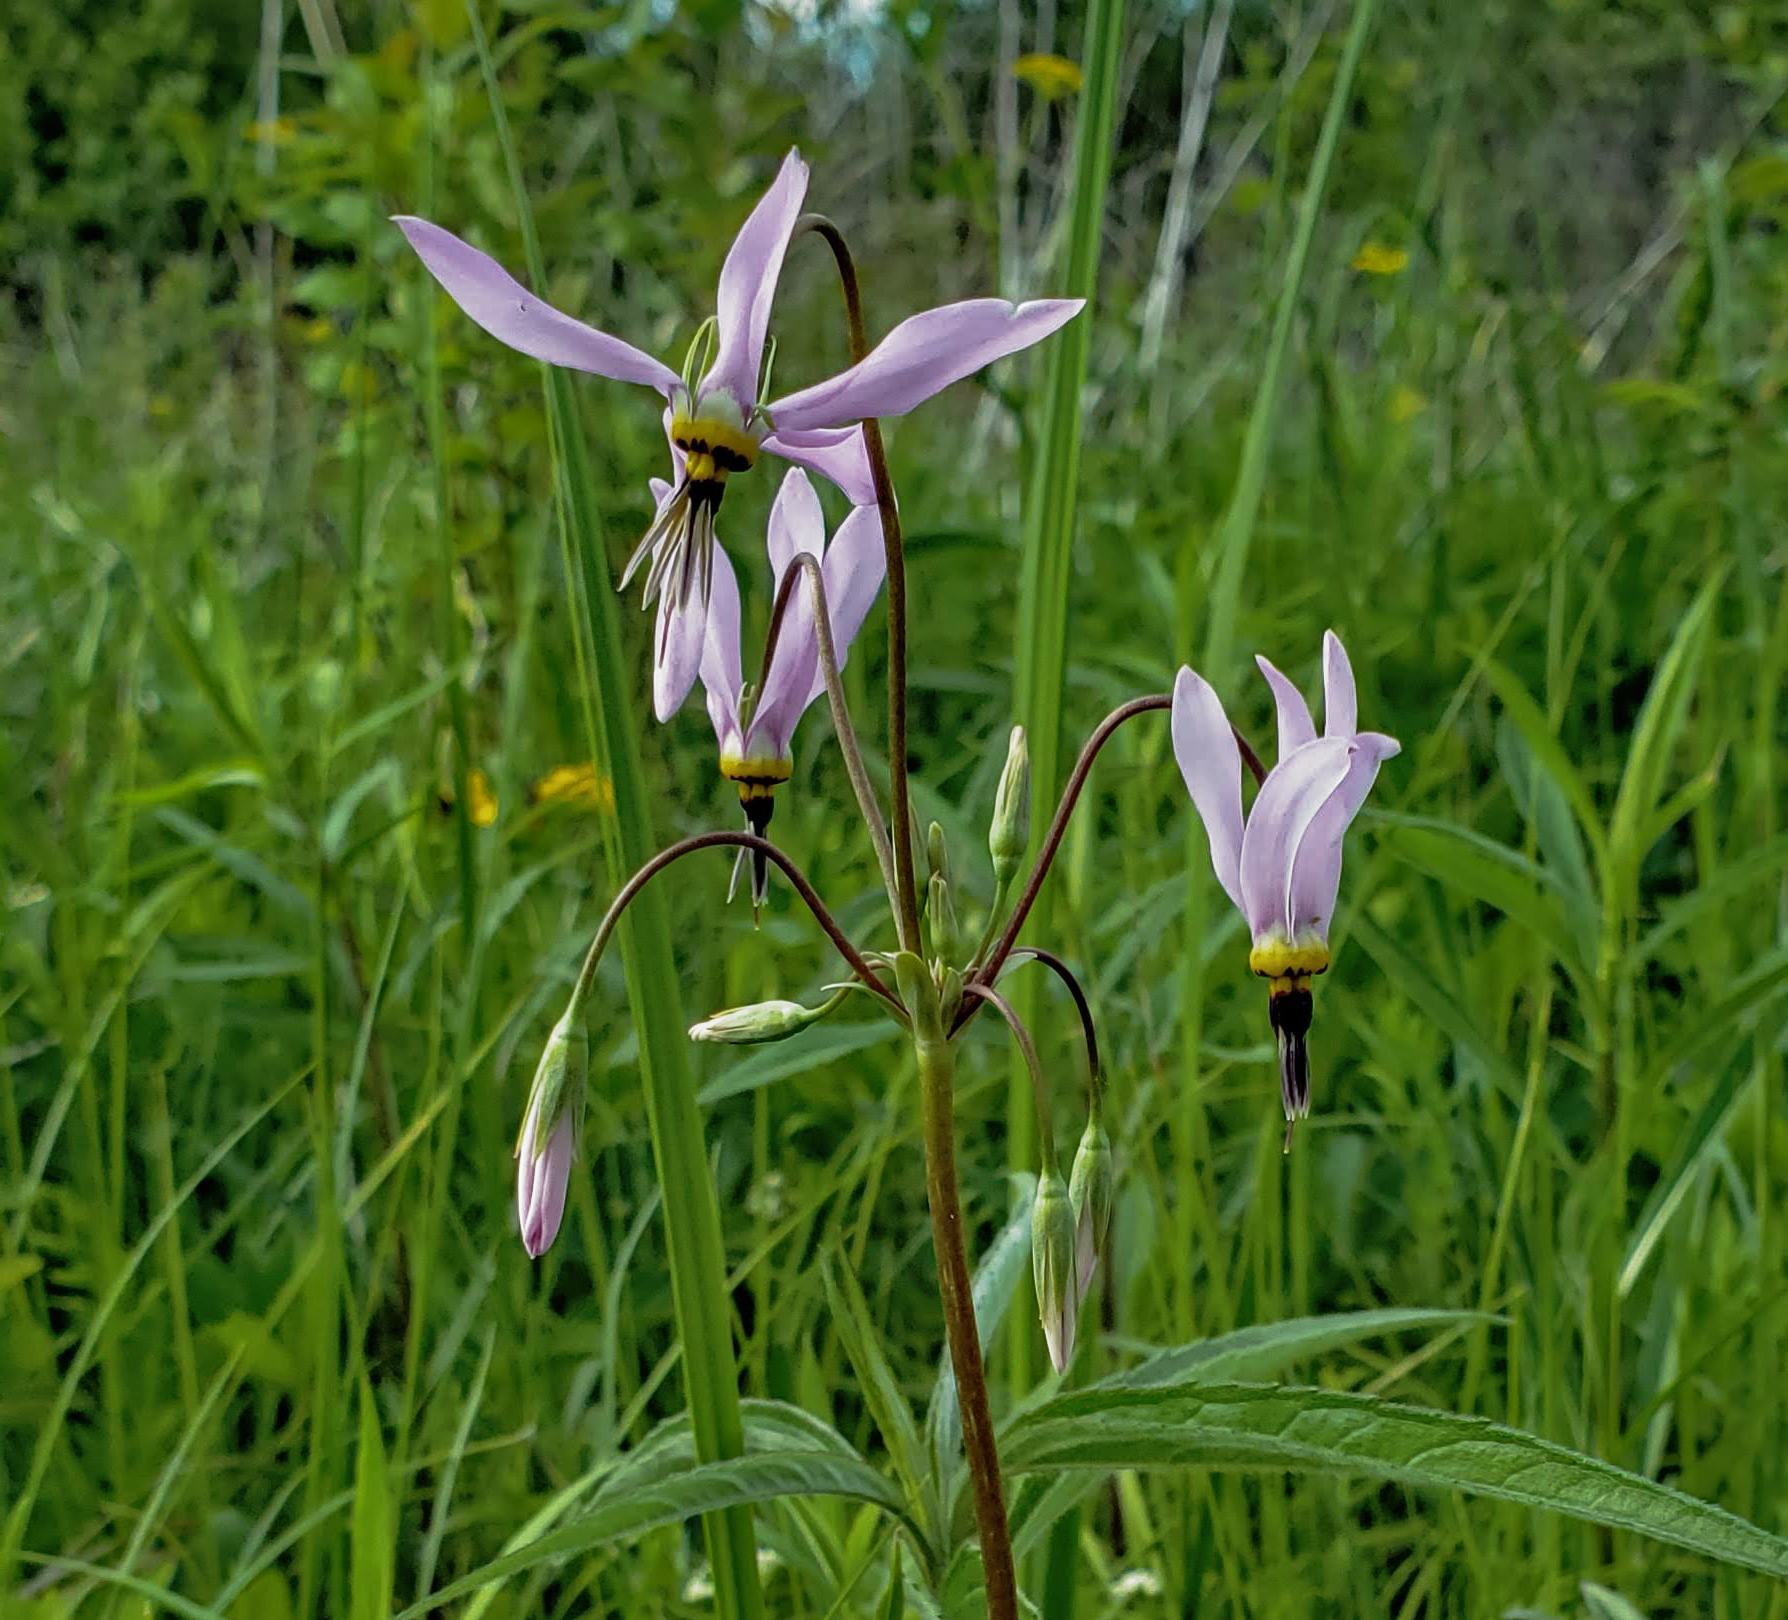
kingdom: Plantae
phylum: Tracheophyta
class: Magnoliopsida
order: Ericales
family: Primulaceae
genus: Dodecatheon
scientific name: Dodecatheon meadia
